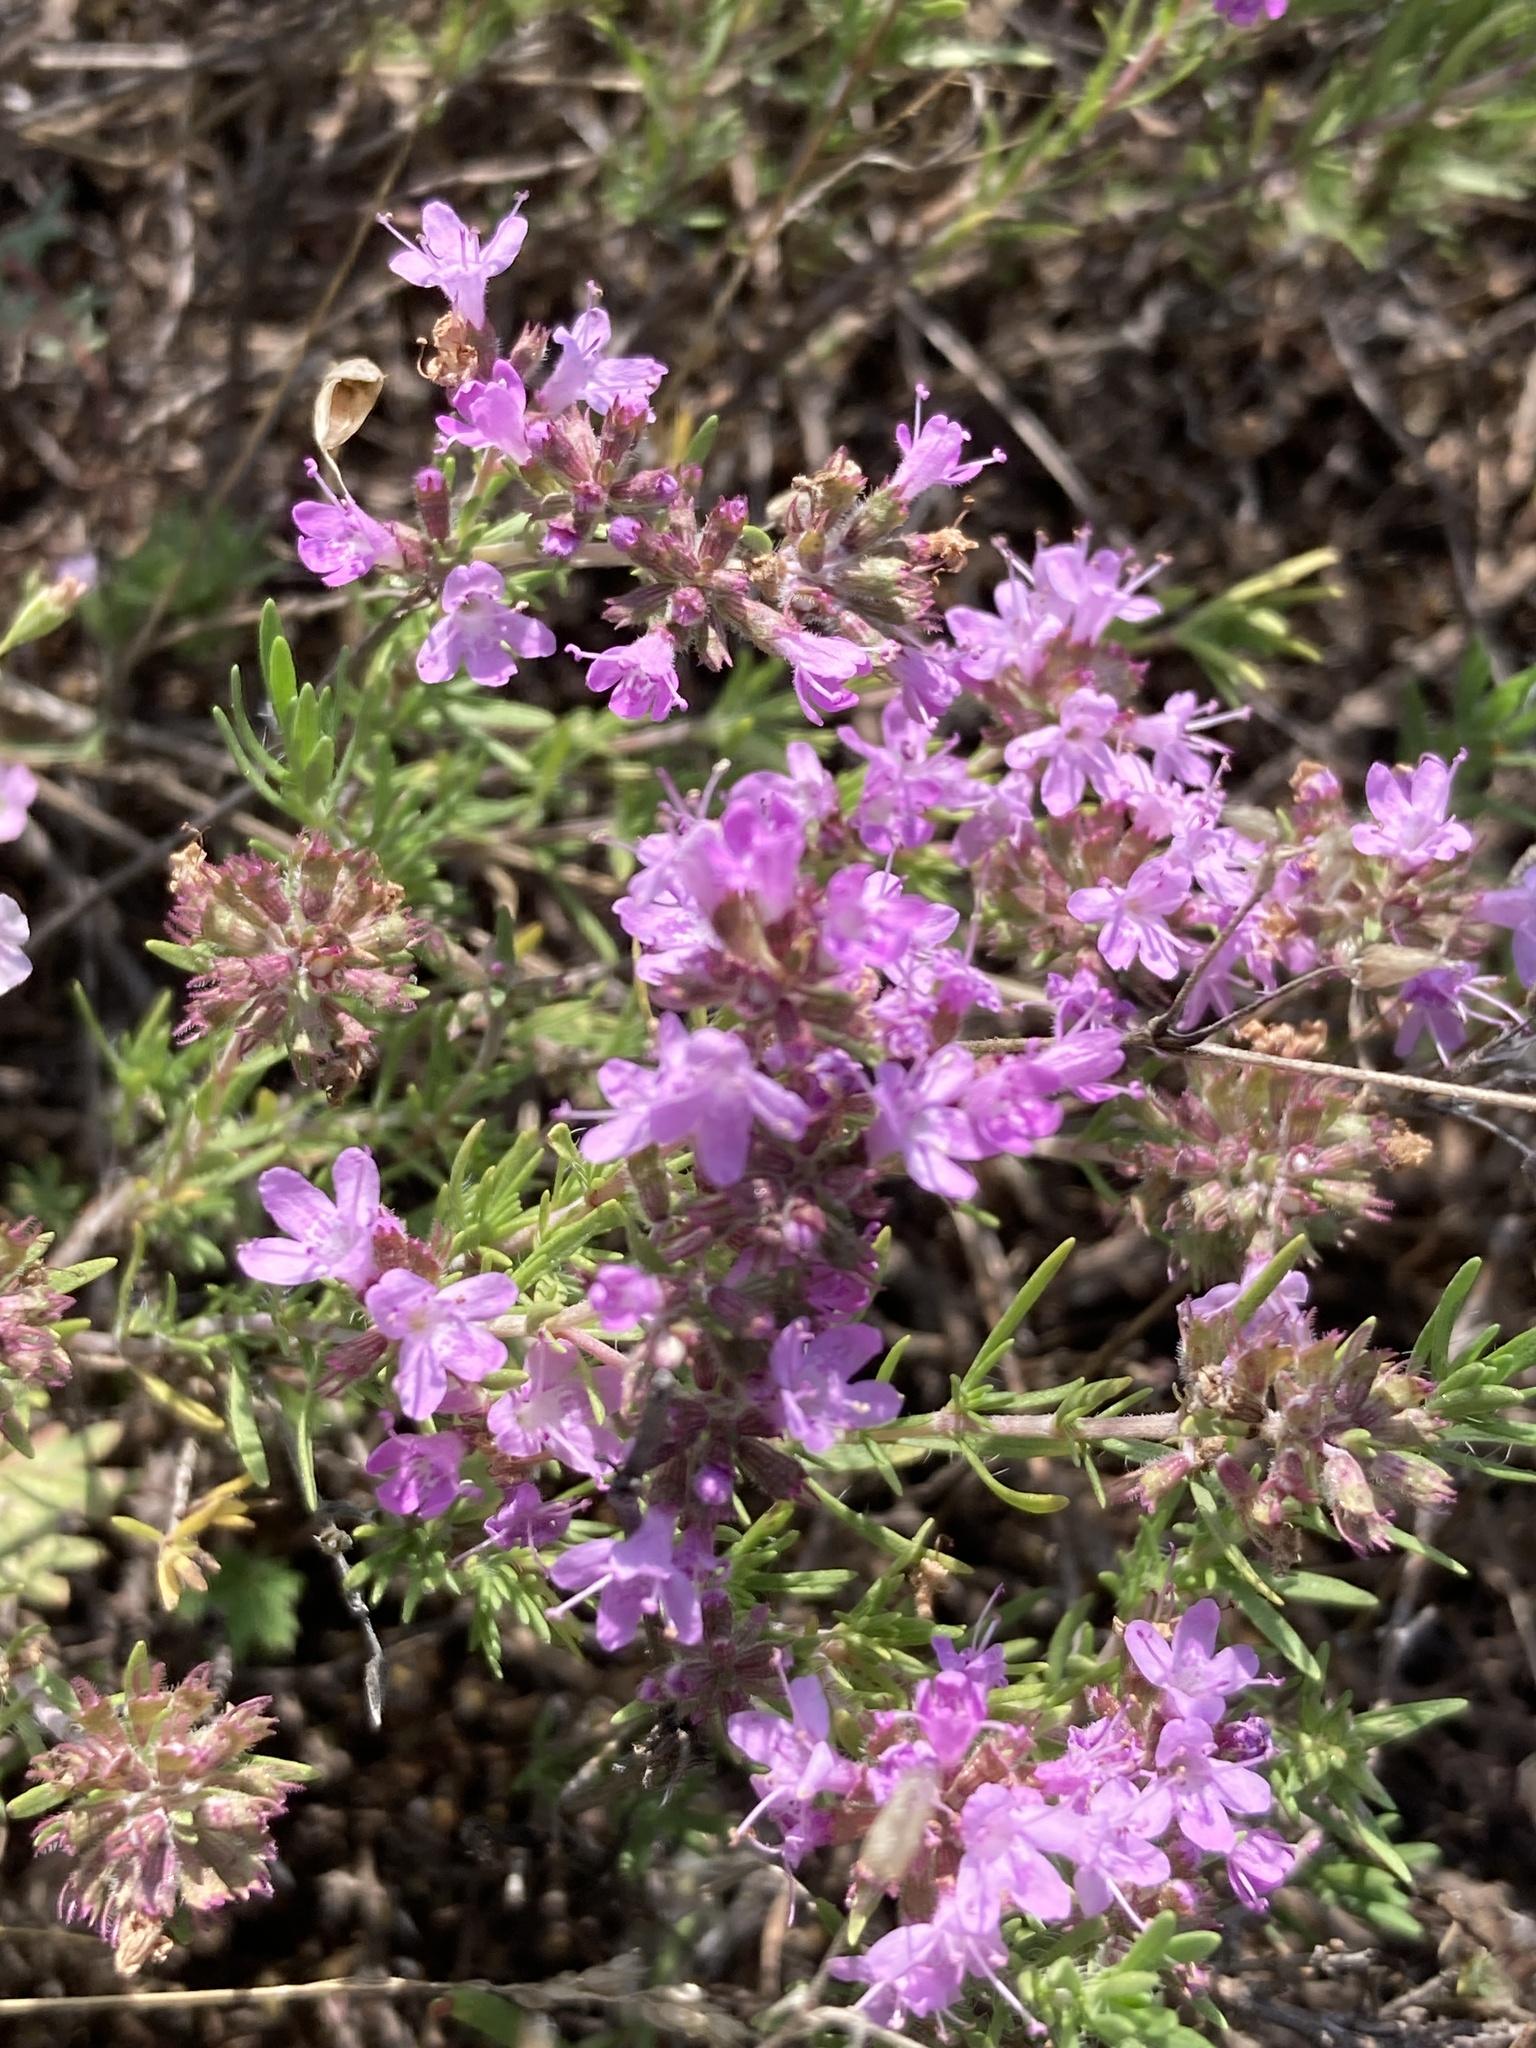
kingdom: Plantae
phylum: Tracheophyta
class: Magnoliopsida
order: Lamiales
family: Lamiaceae
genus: Thymus
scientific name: Thymus pallasianus
